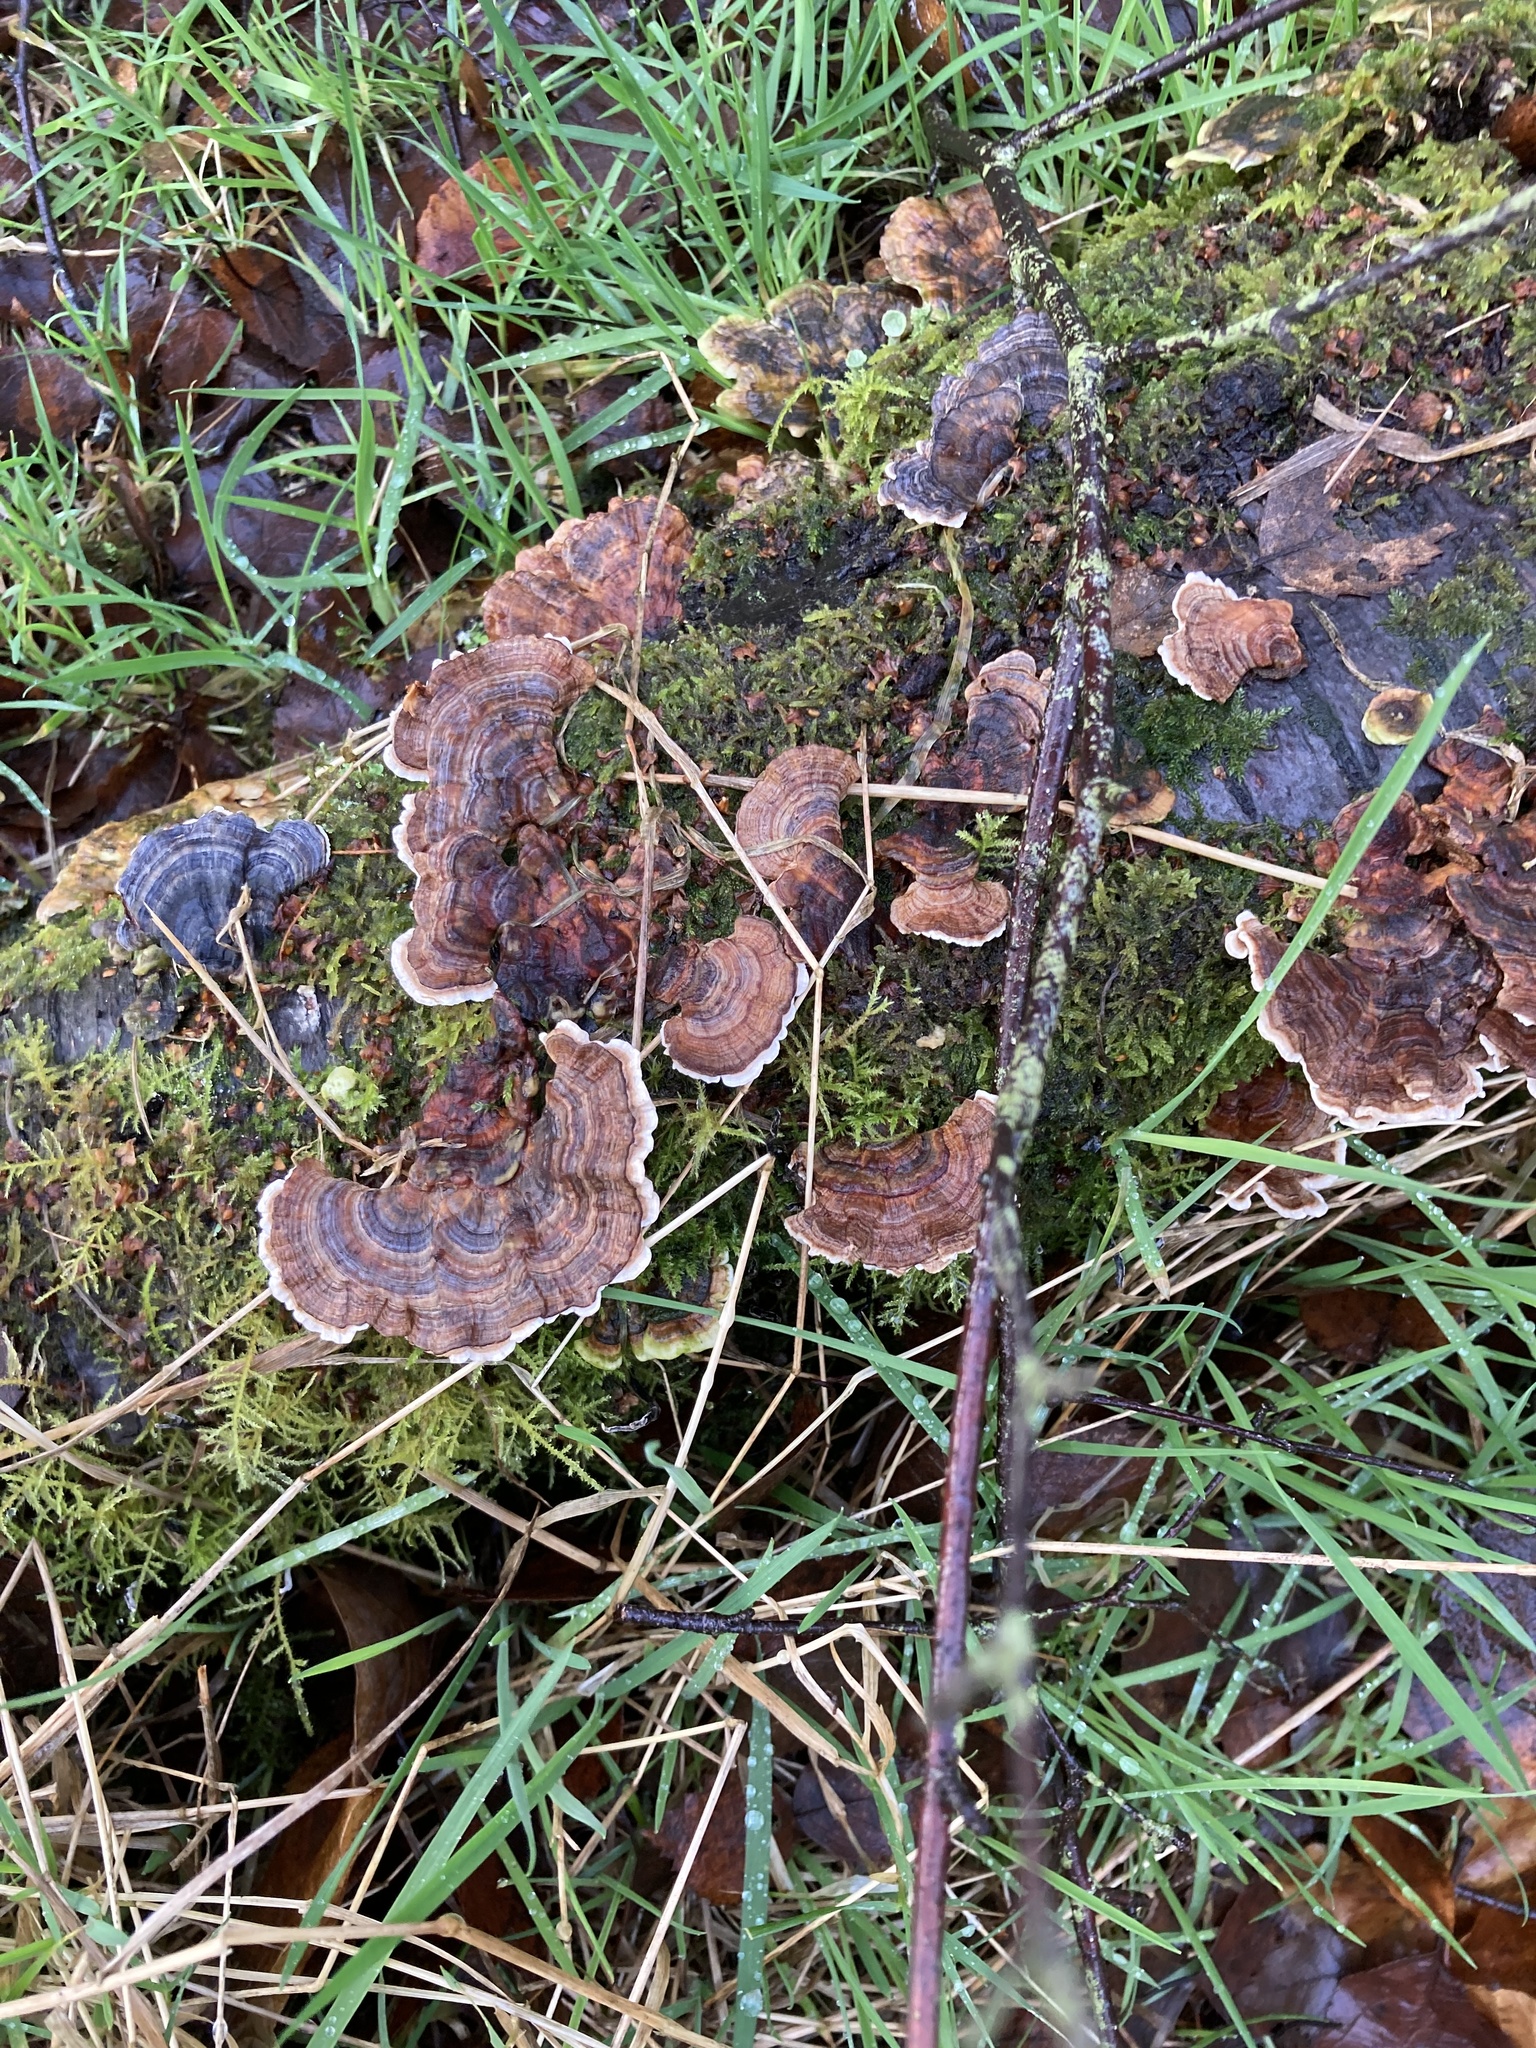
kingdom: Fungi
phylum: Basidiomycota
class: Agaricomycetes
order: Polyporales
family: Polyporaceae
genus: Trametes
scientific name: Trametes versicolor
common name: Turkeytail
